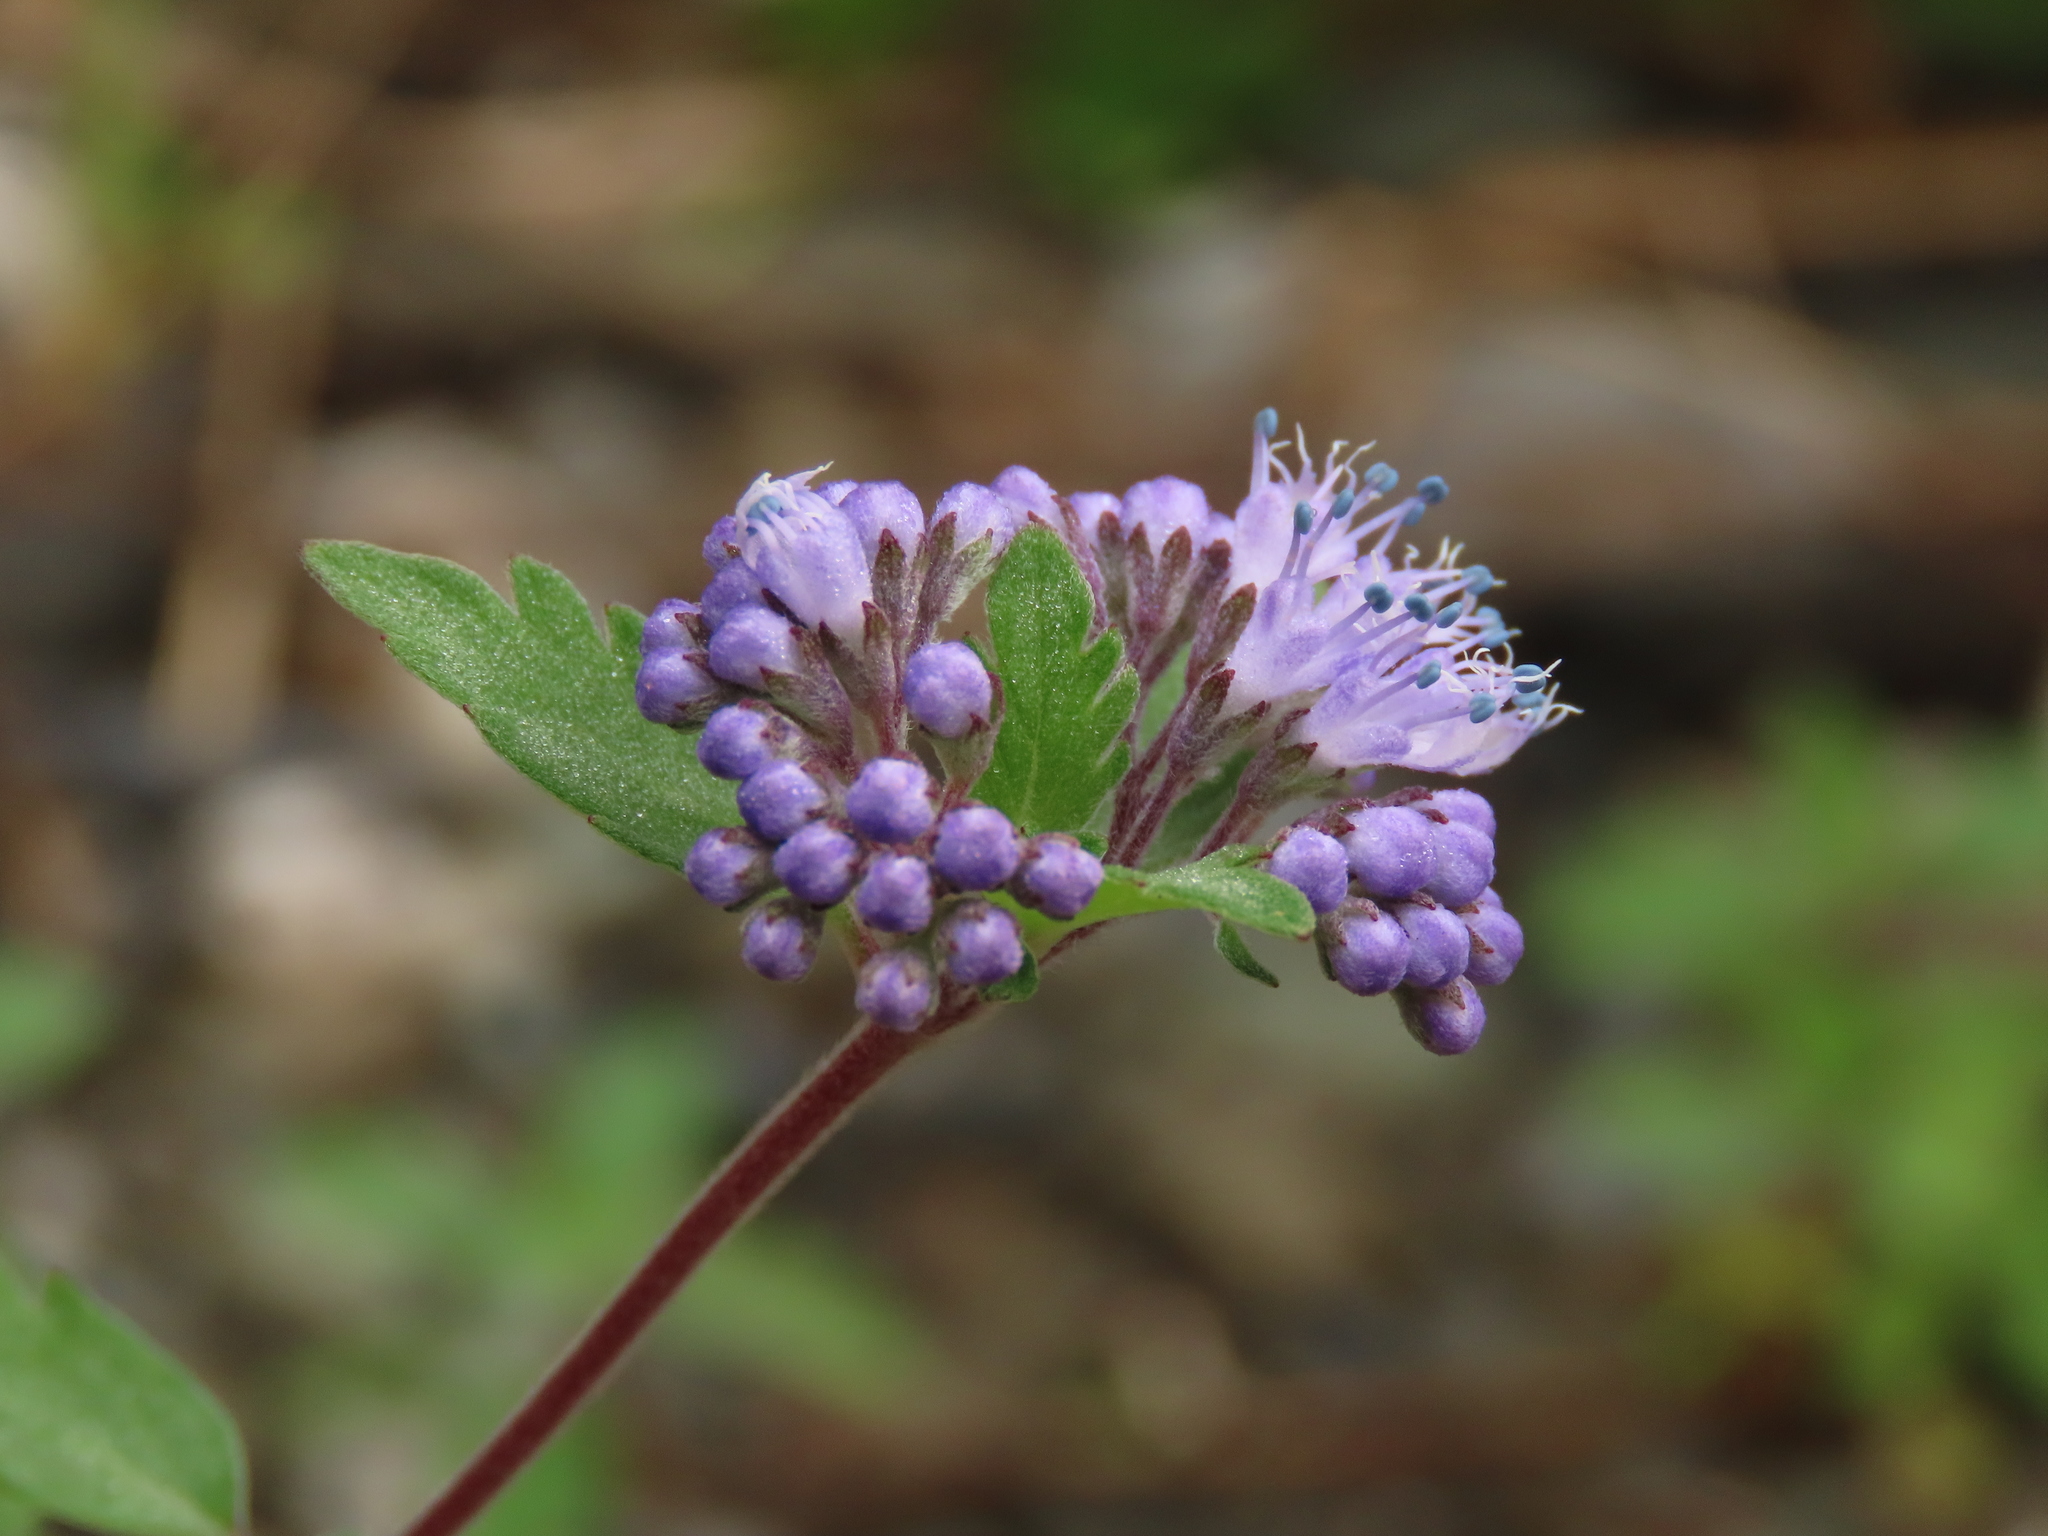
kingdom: Plantae
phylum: Tracheophyta
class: Magnoliopsida
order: Lamiales
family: Lamiaceae
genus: Caryopteris
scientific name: Caryopteris incana
